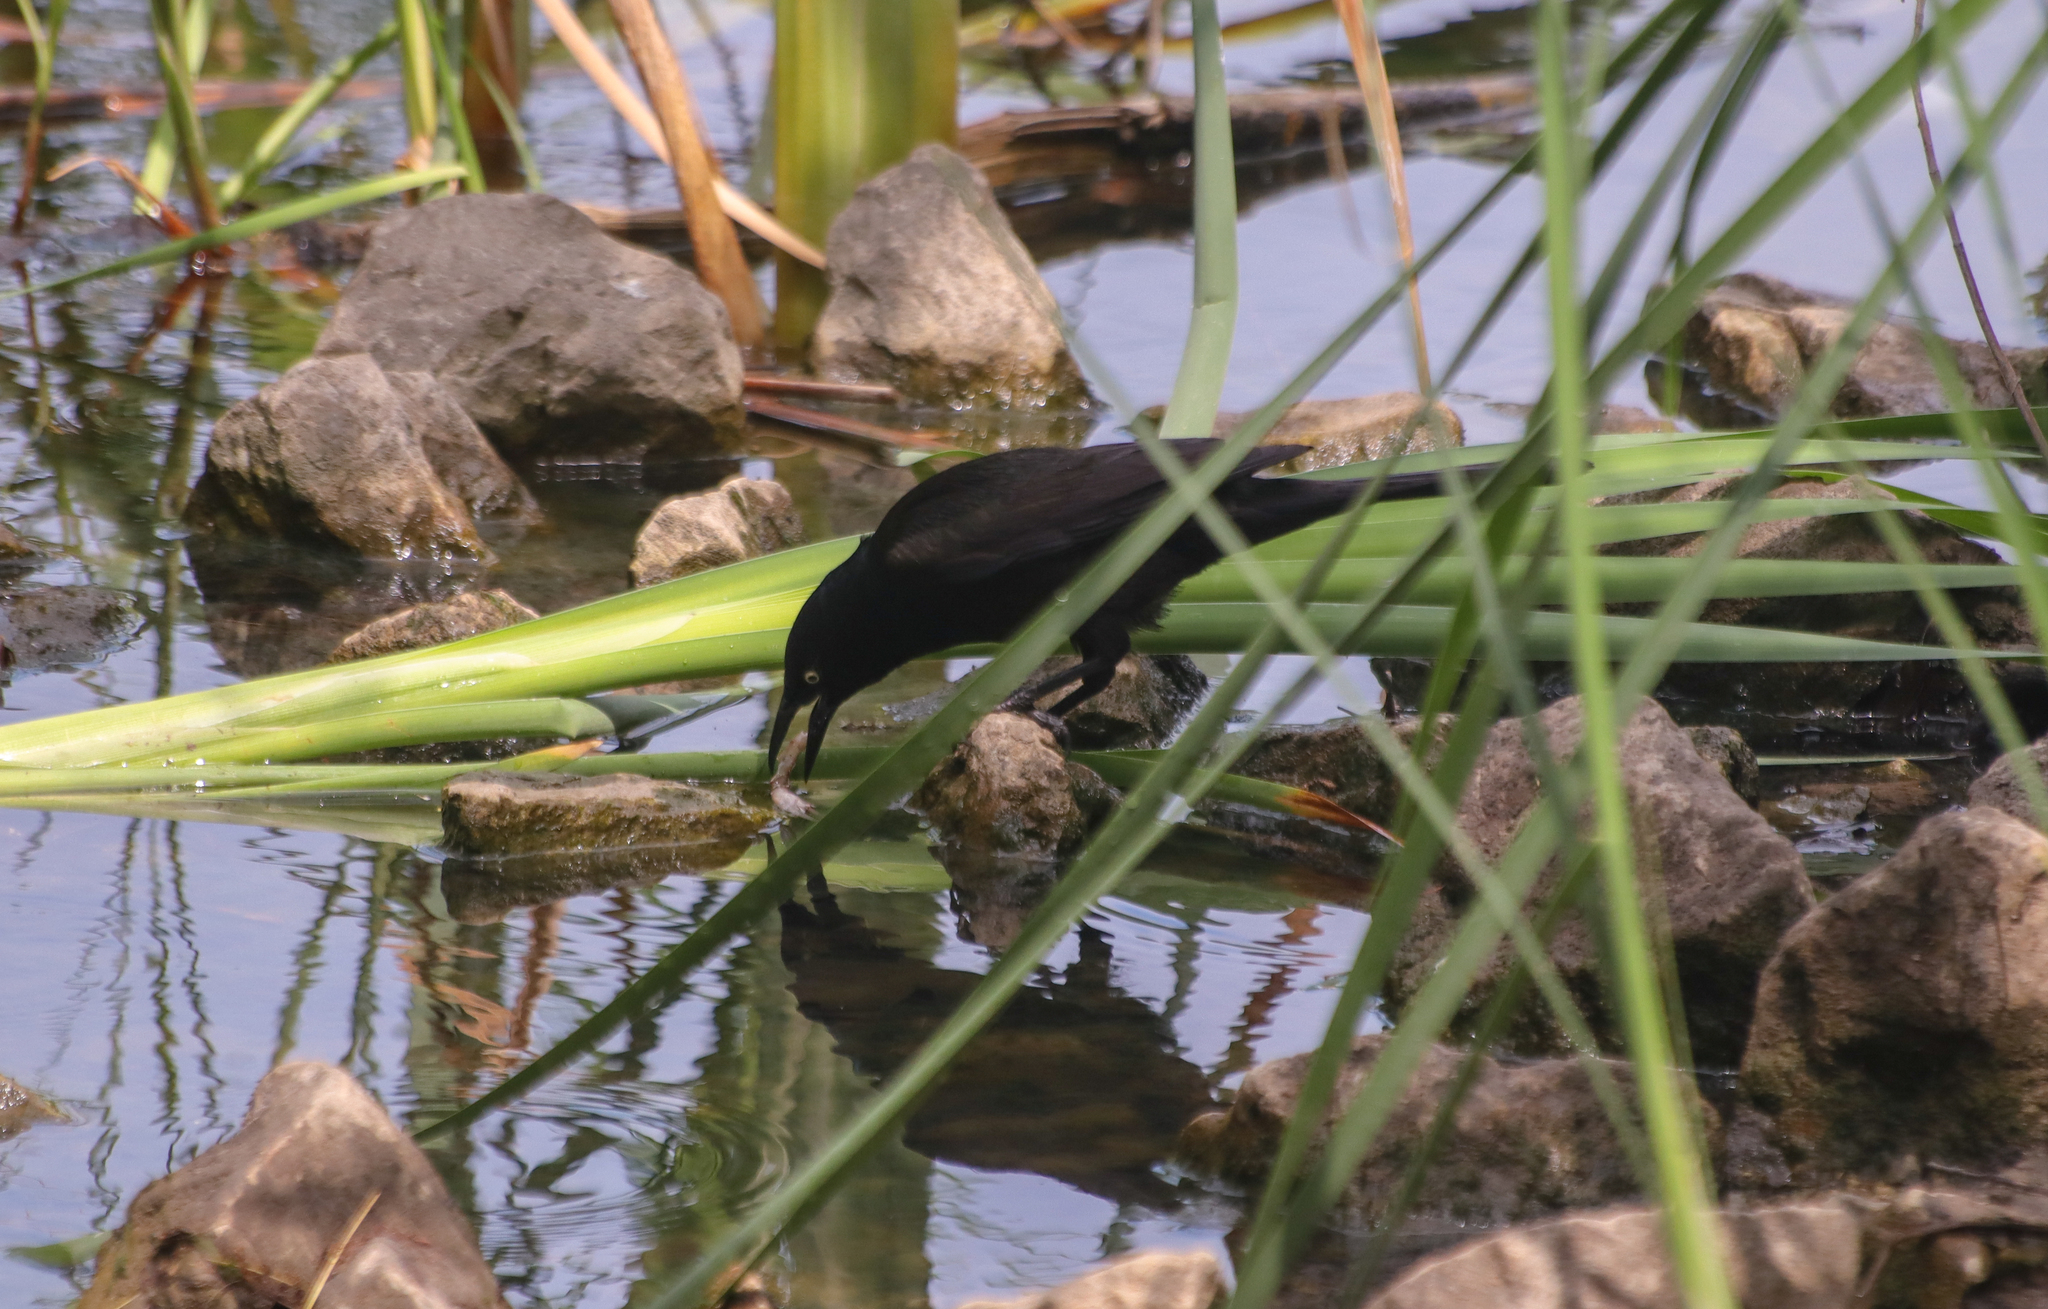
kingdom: Animalia
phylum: Chordata
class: Aves
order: Passeriformes
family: Icteridae
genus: Quiscalus
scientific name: Quiscalus quiscula
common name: Common grackle
